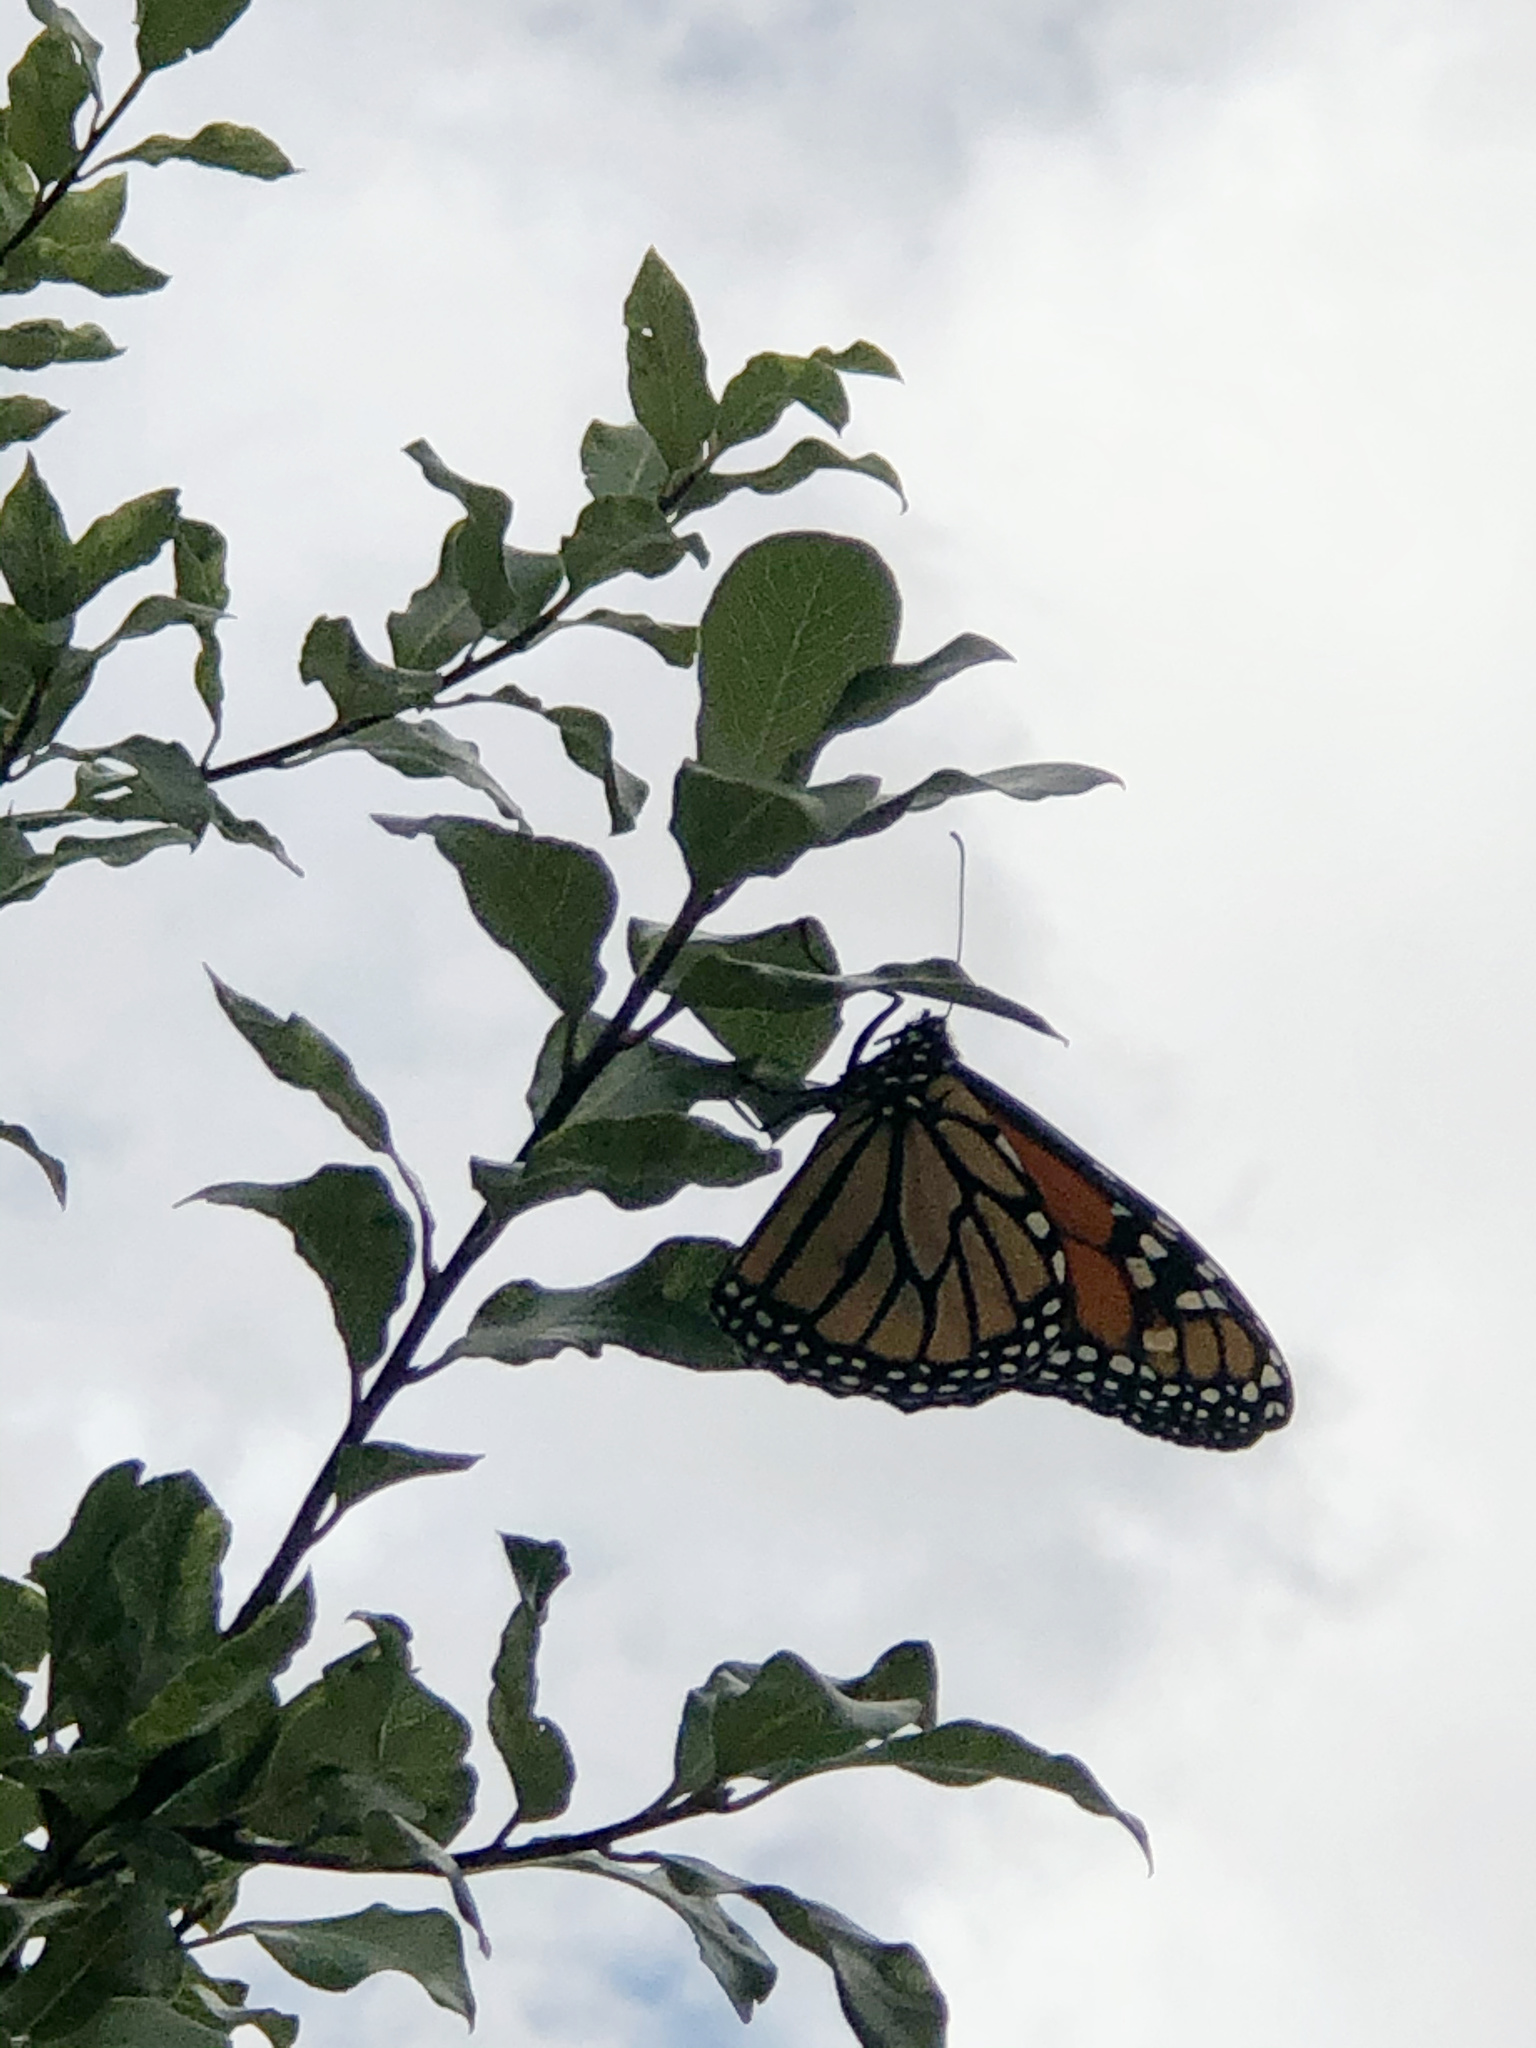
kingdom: Animalia
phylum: Arthropoda
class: Insecta
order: Lepidoptera
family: Nymphalidae
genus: Danaus
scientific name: Danaus plexippus
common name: Monarch
